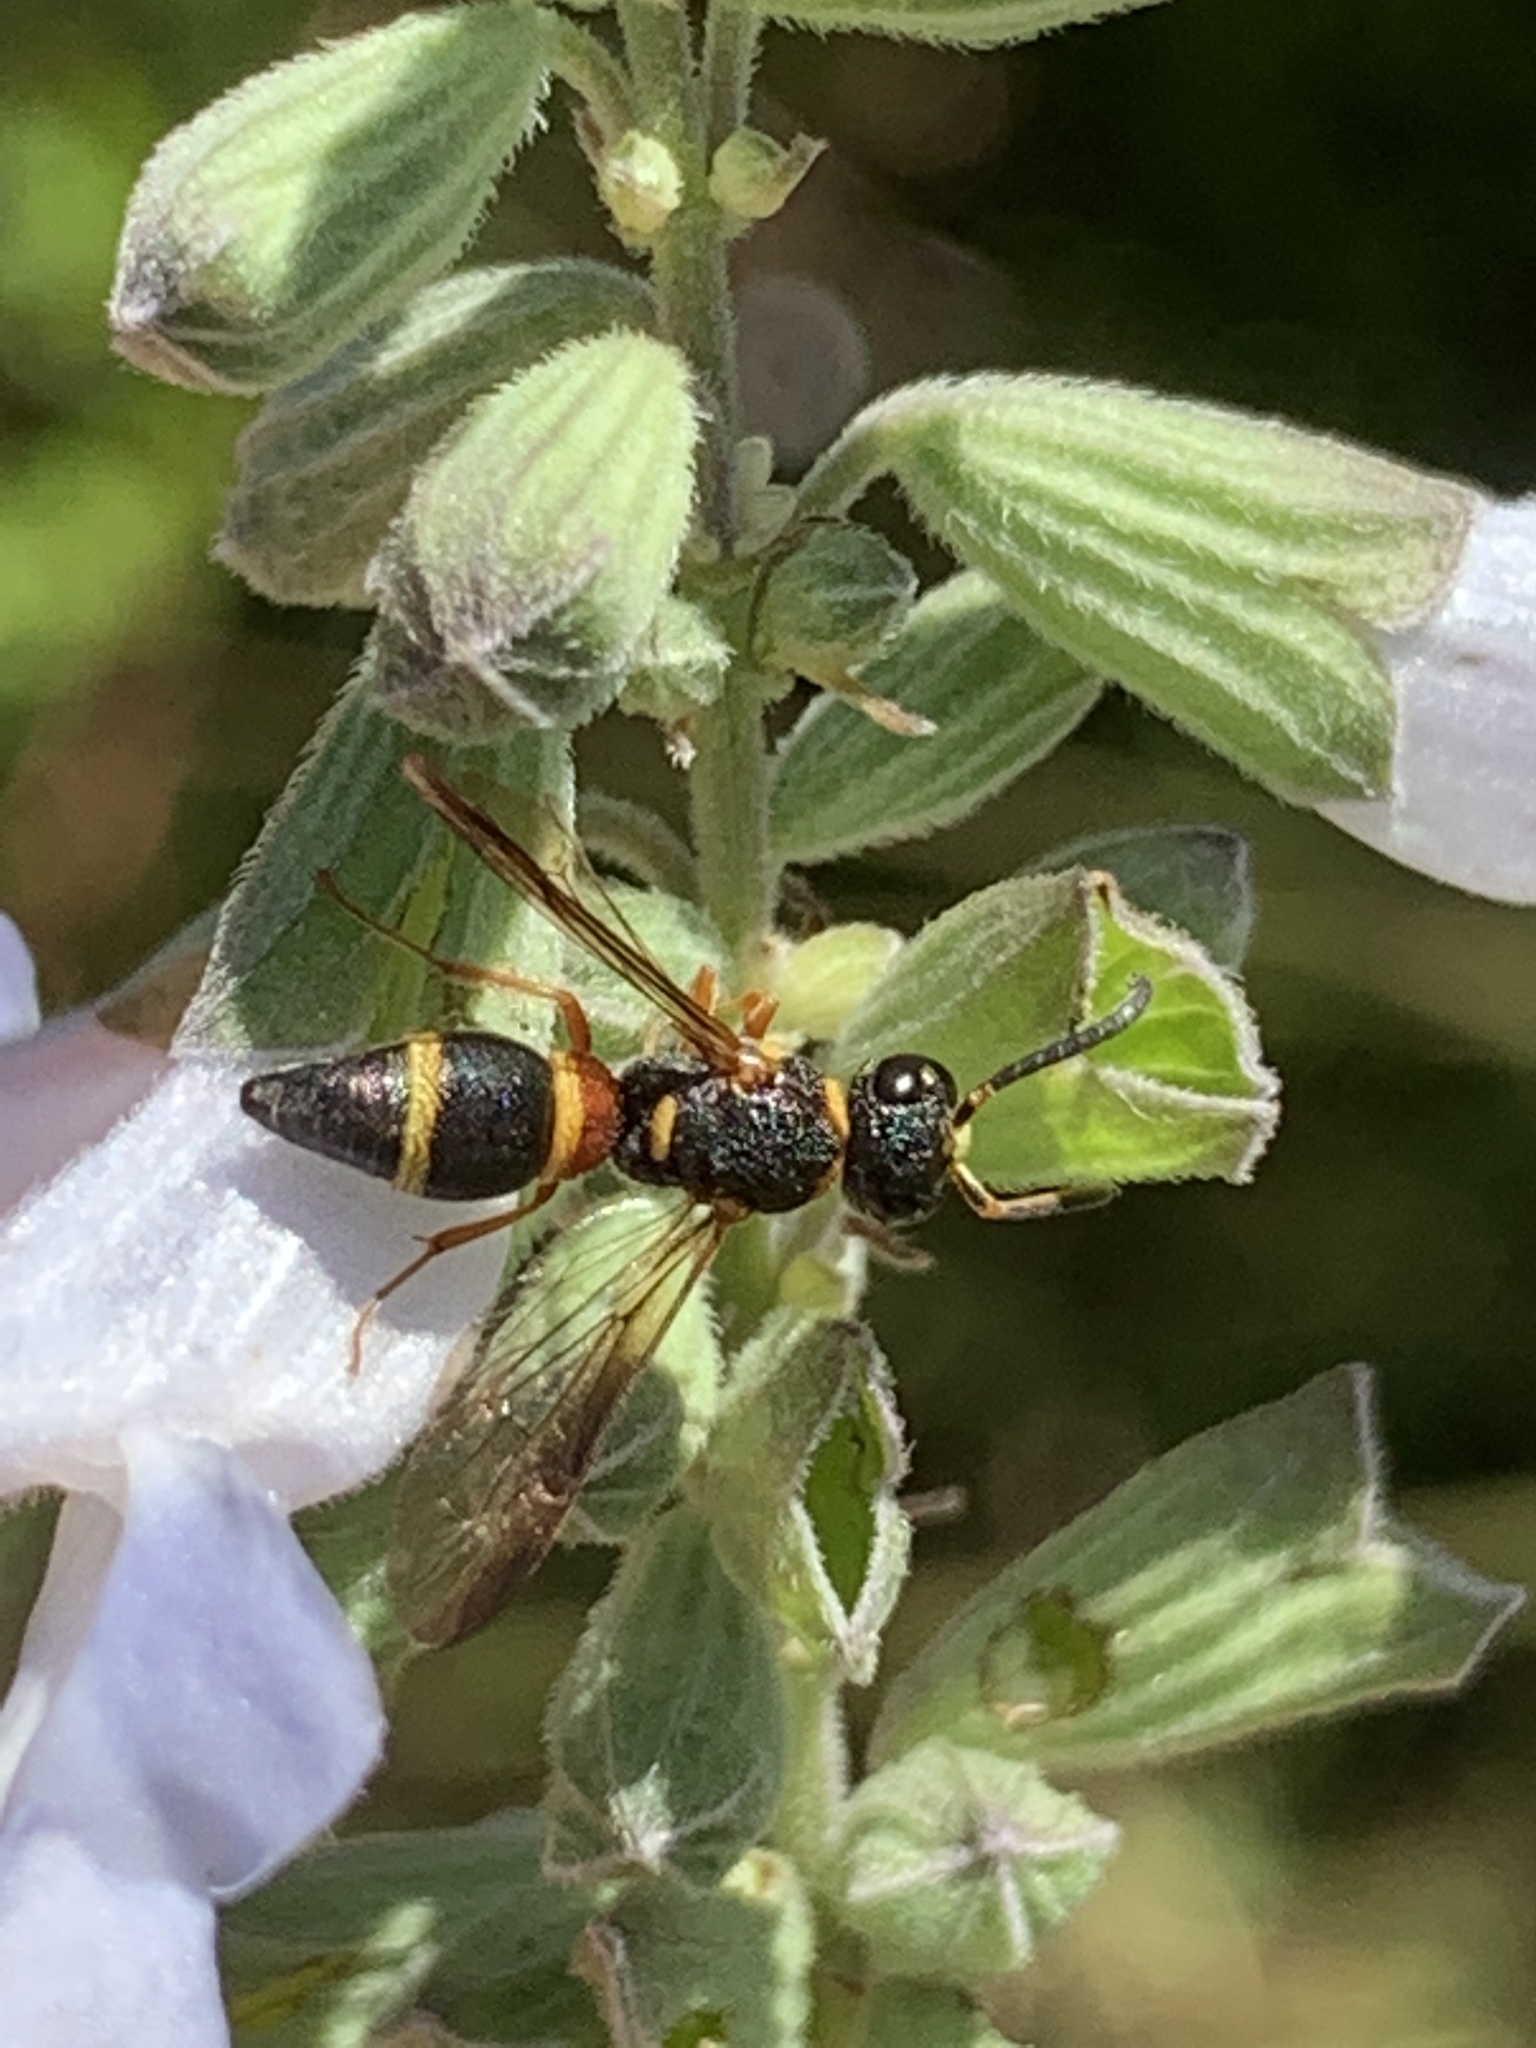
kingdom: Animalia
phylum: Arthropoda
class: Insecta
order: Hymenoptera
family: Eumenidae
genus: Parancistrocerus
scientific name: Parancistrocerus perennis
